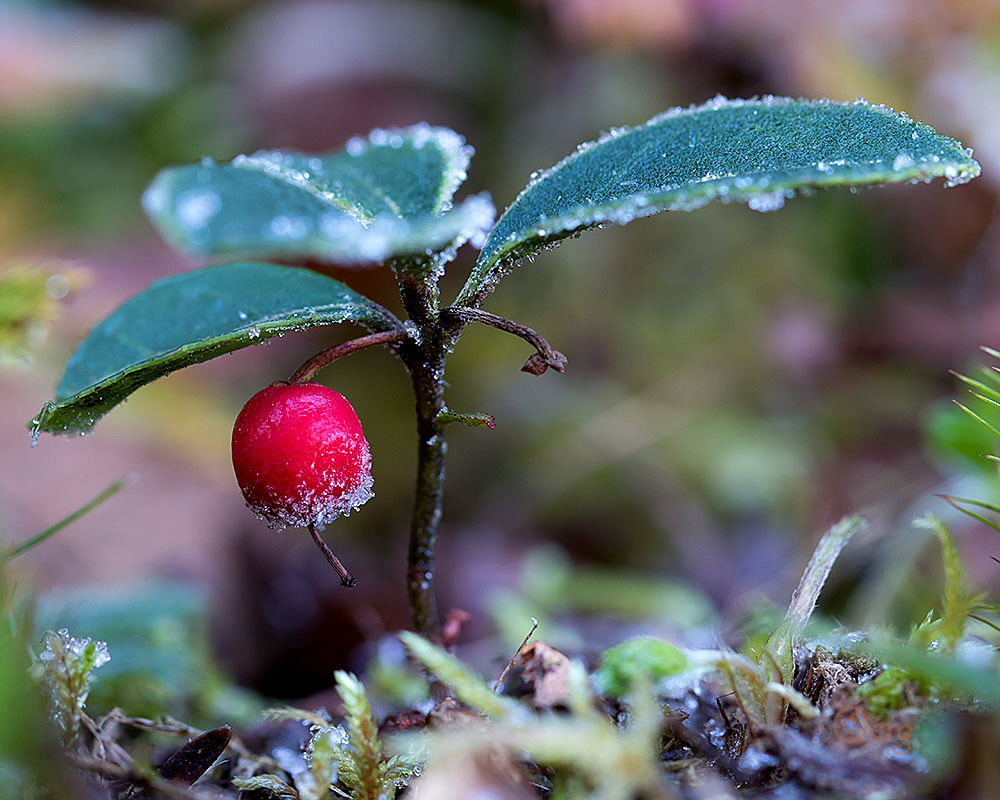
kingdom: Plantae
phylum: Tracheophyta
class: Magnoliopsida
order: Ericales
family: Ericaceae
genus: Gaultheria
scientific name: Gaultheria procumbens
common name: Checkerberry
